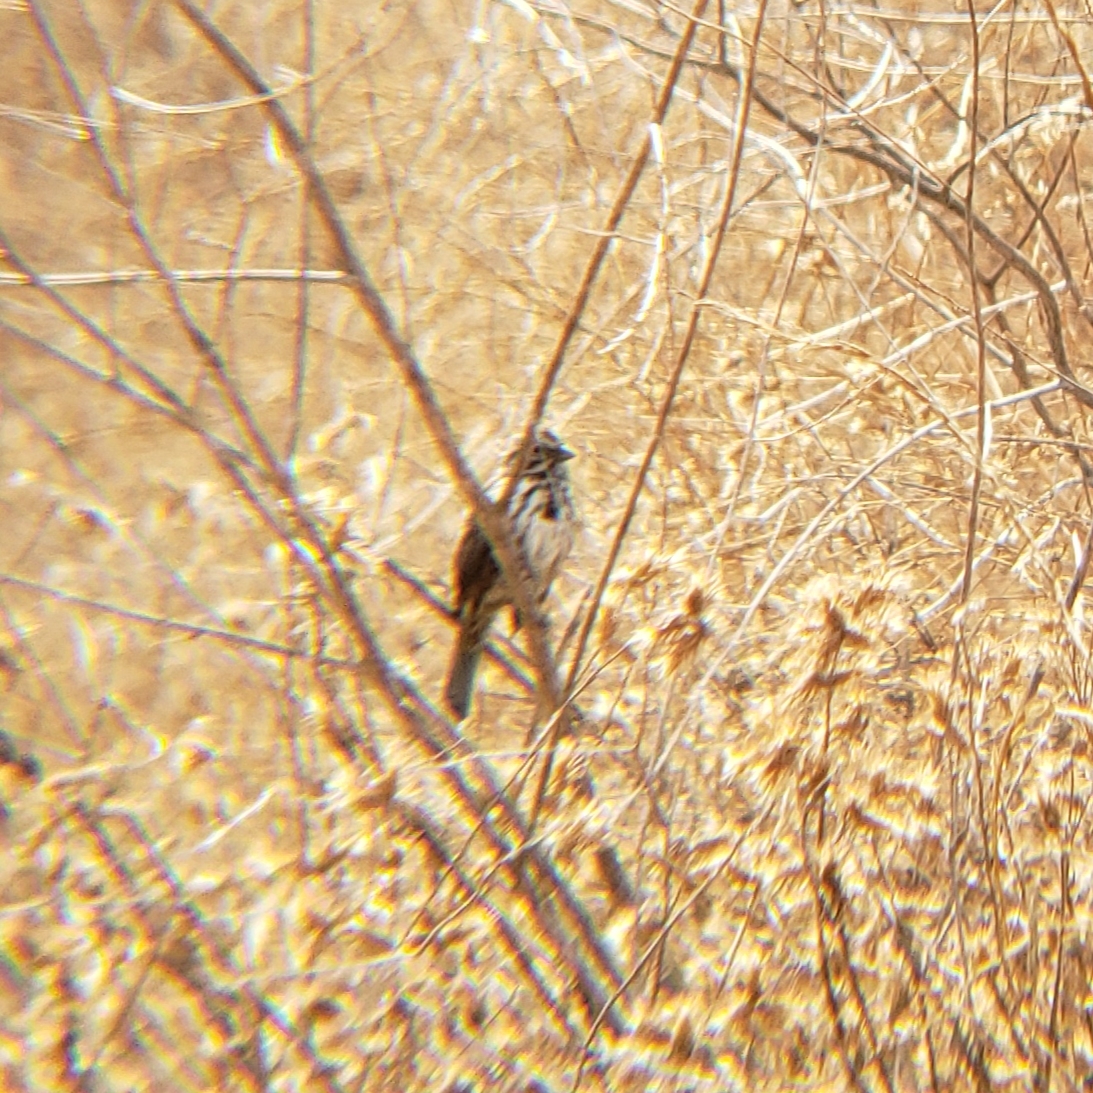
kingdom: Animalia
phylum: Chordata
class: Aves
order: Passeriformes
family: Passerellidae
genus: Melospiza
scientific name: Melospiza melodia
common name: Song sparrow
